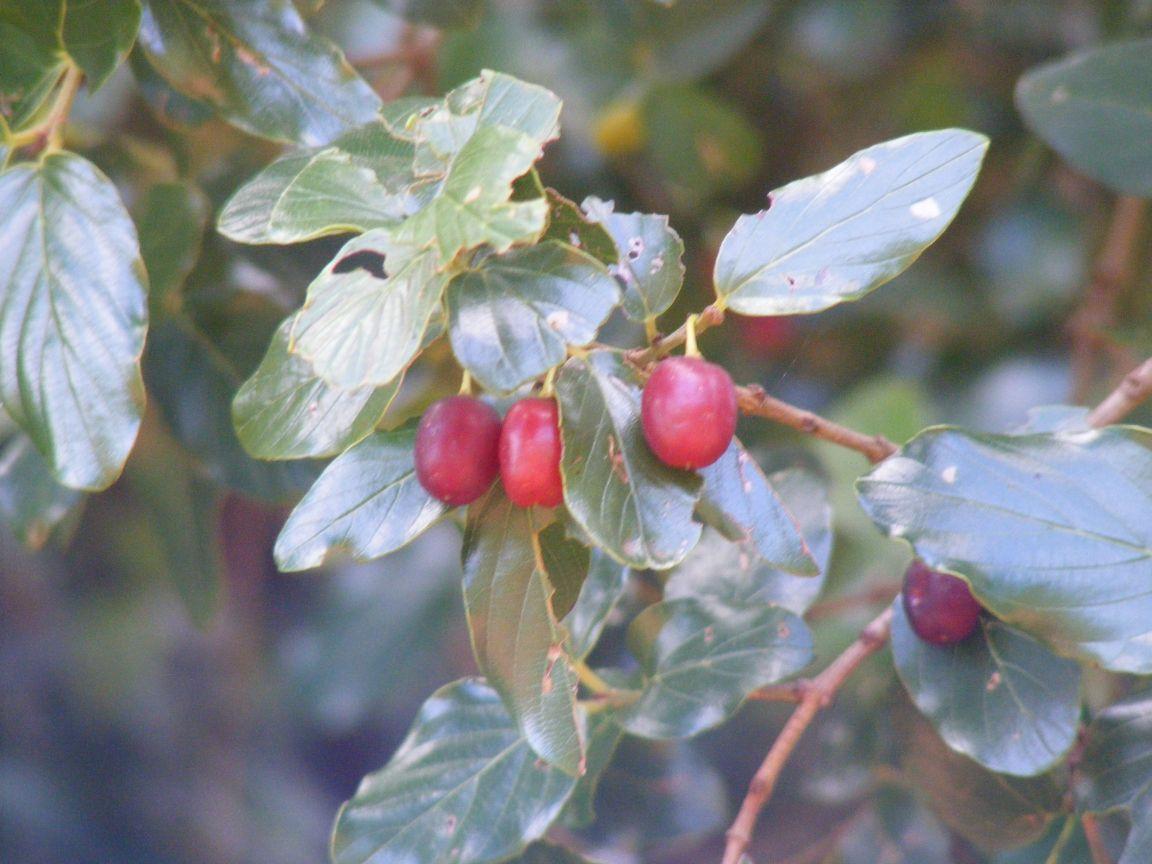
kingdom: Plantae
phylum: Tracheophyta
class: Magnoliopsida
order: Rosales
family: Rhamnaceae
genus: Phyllogeiton
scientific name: Phyllogeiton zeyheri
